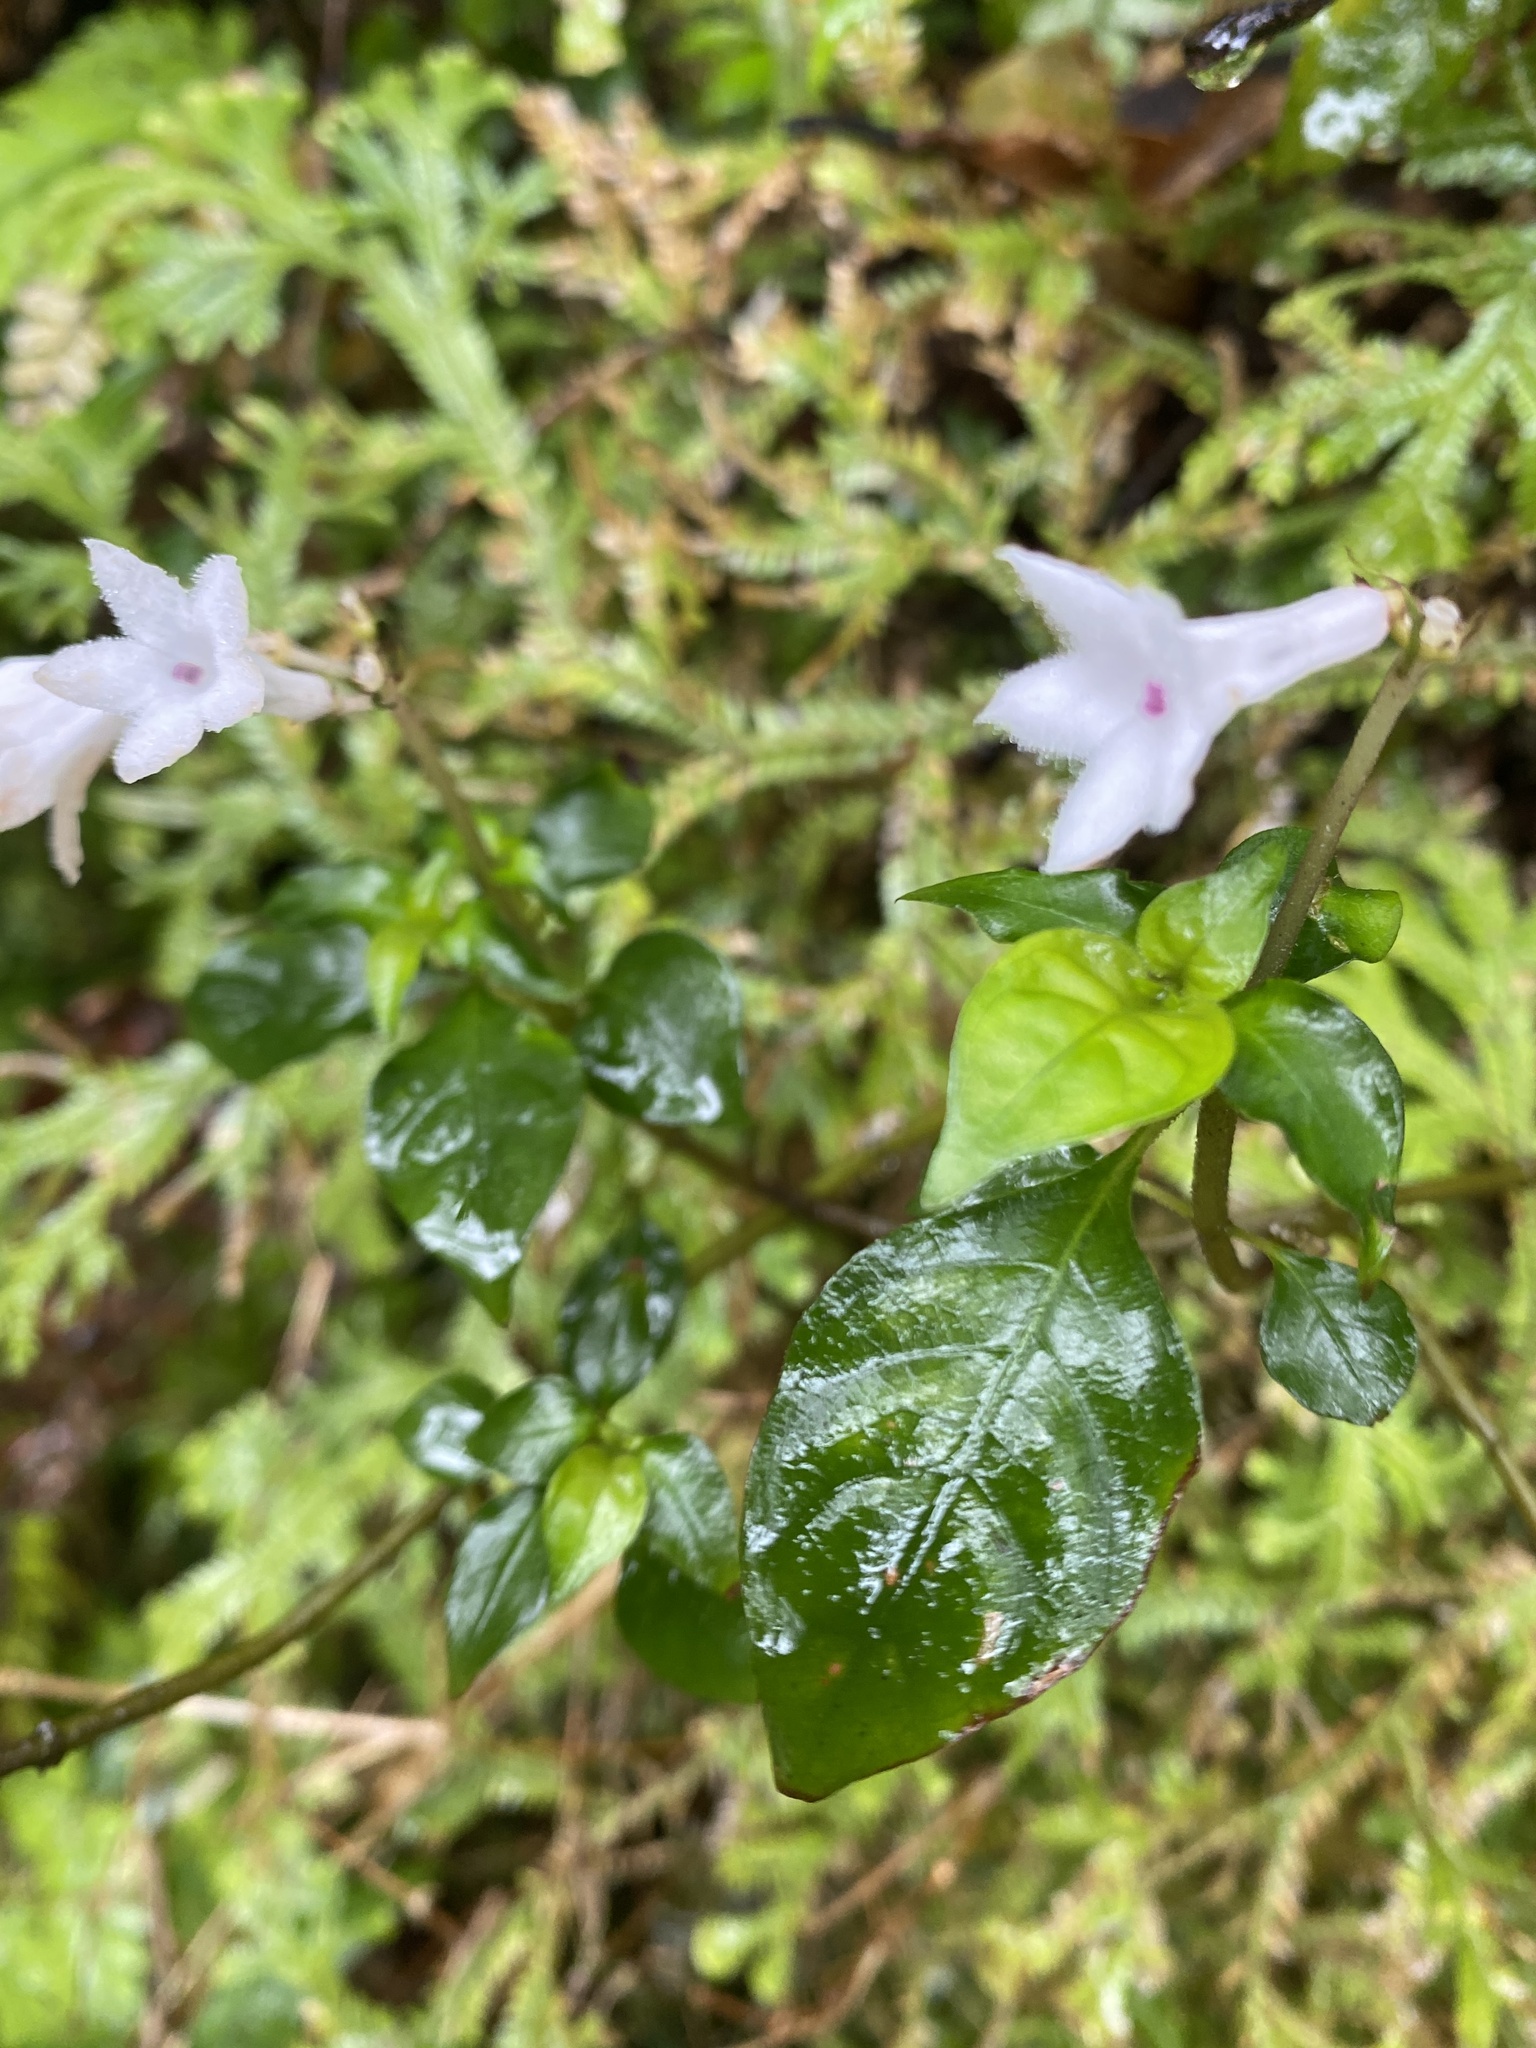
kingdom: Plantae
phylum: Tracheophyta
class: Magnoliopsida
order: Gentianales
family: Rubiaceae
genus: Ophiorrhiza
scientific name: Ophiorrhiza japonica
